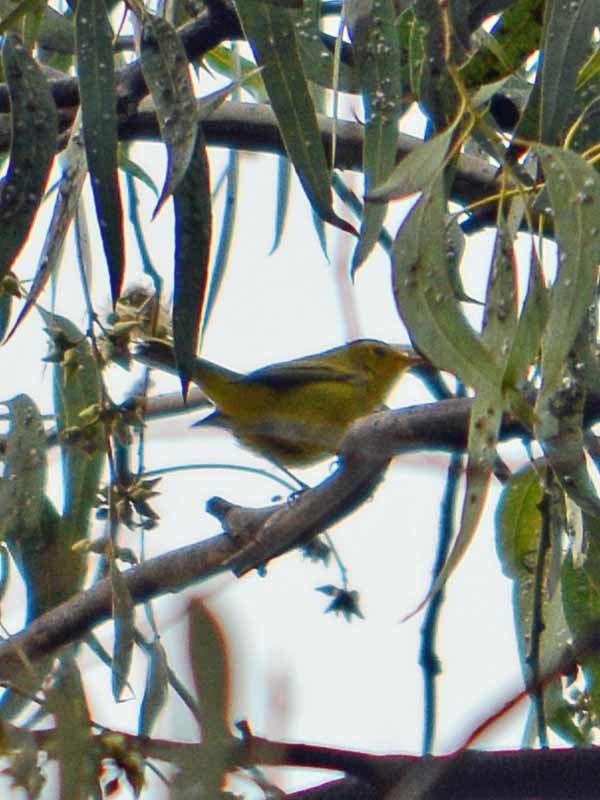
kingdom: Animalia
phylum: Chordata
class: Aves
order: Passeriformes
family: Parulidae
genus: Cardellina
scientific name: Cardellina pusilla
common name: Wilson's warbler
